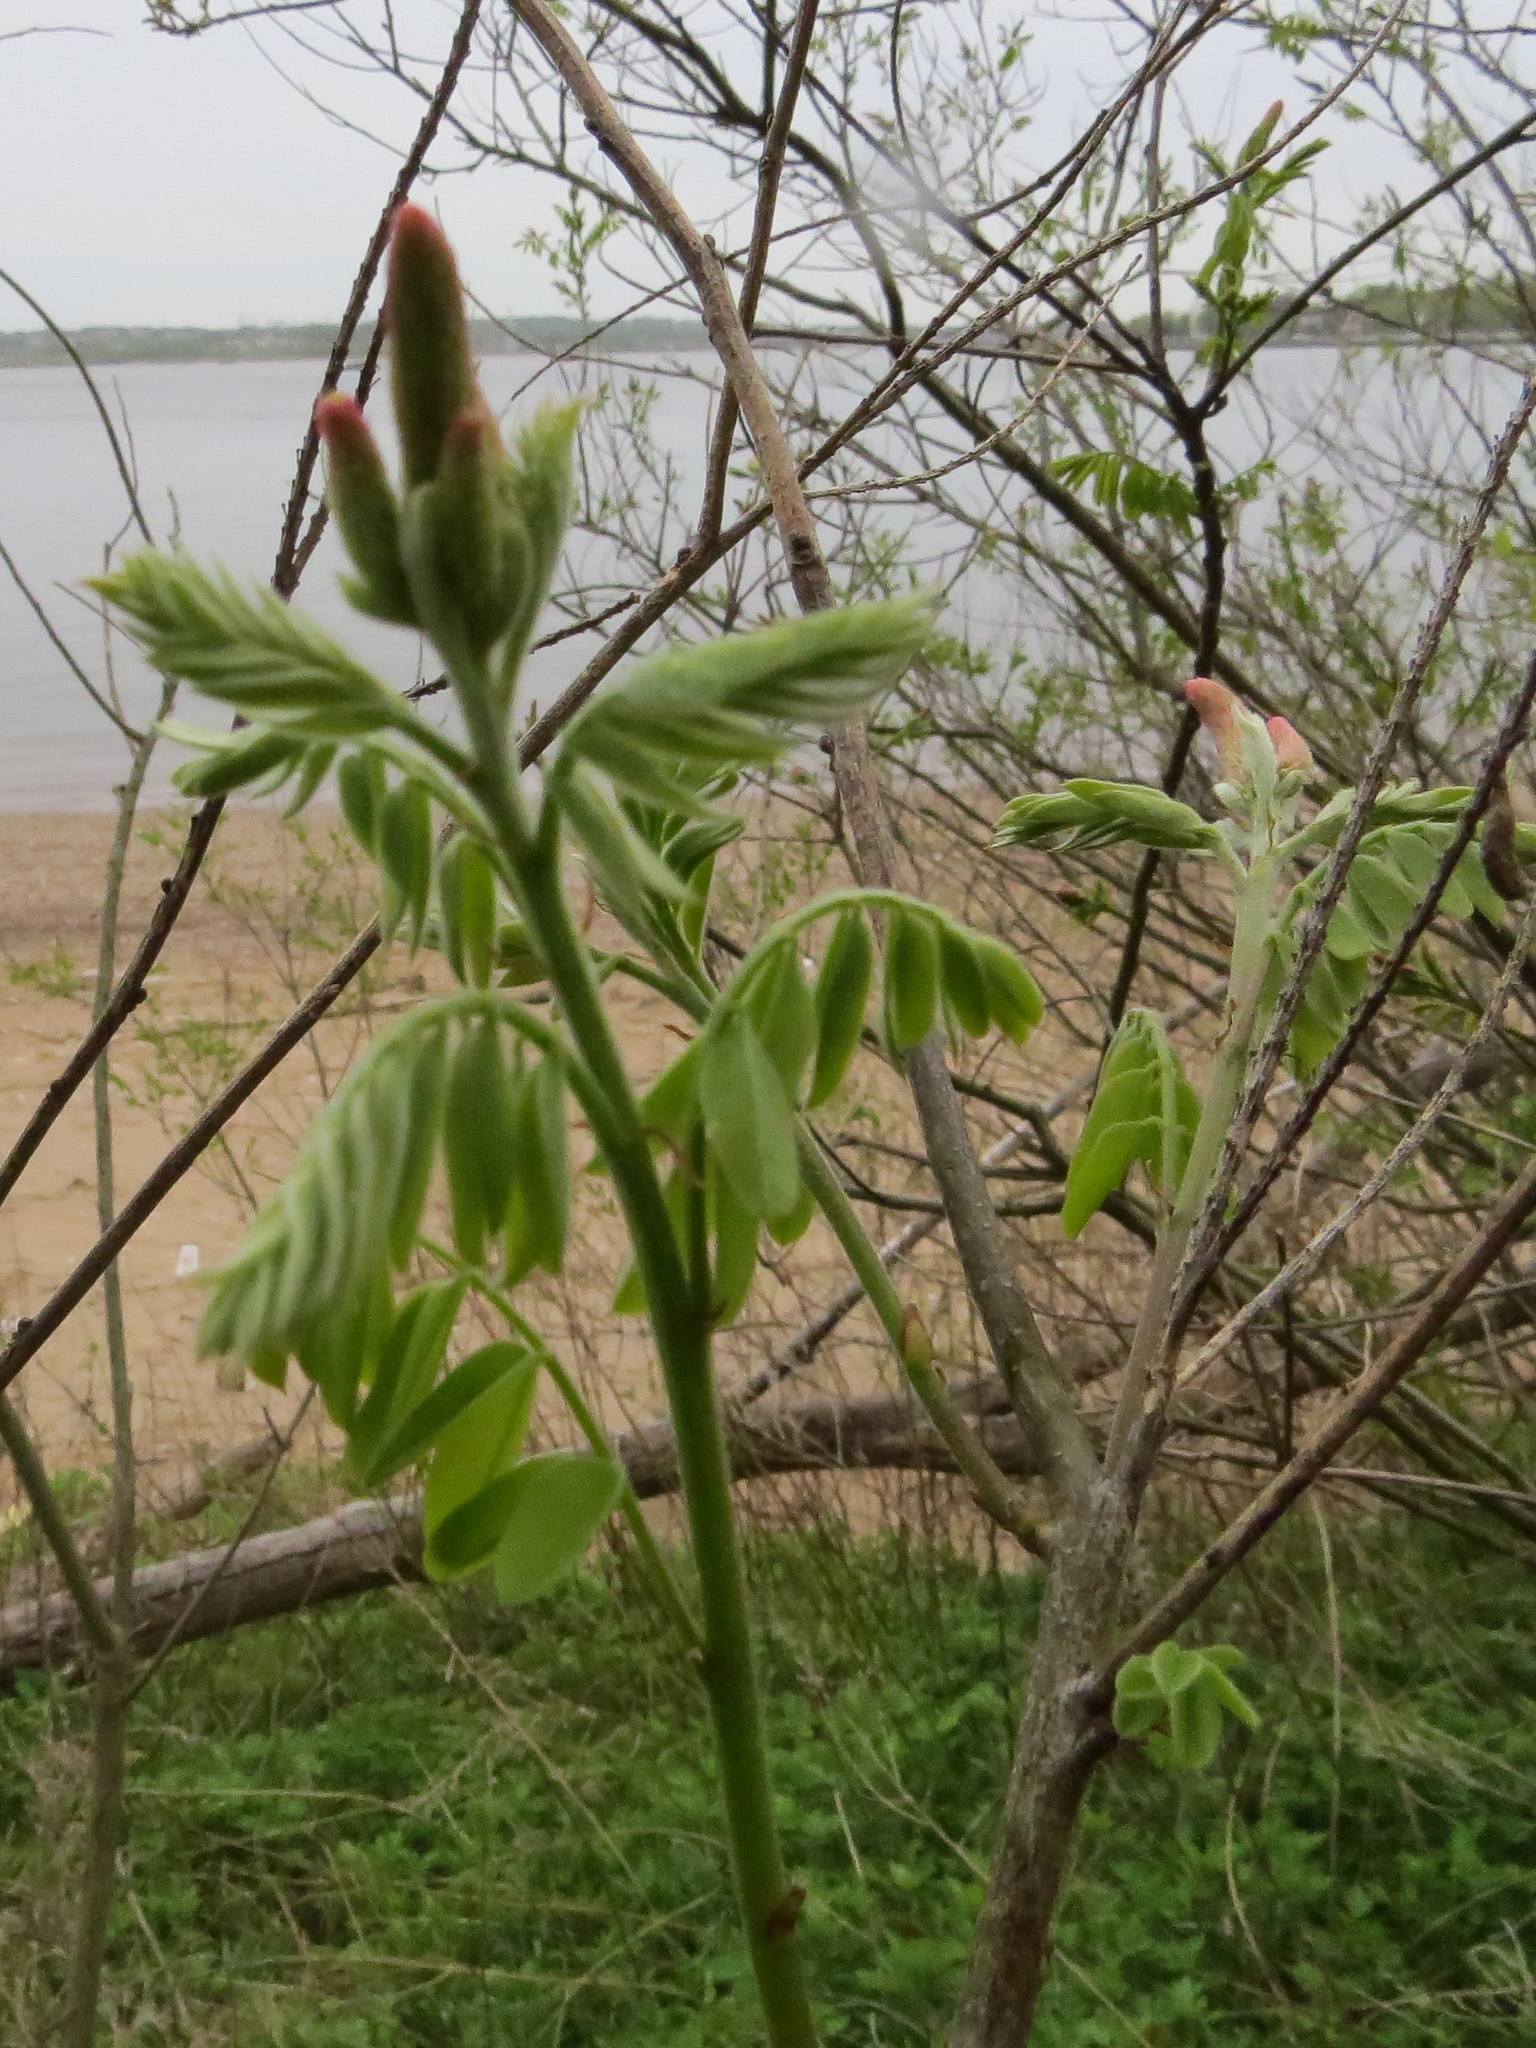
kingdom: Plantae
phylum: Tracheophyta
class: Magnoliopsida
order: Fabales
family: Fabaceae
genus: Amorpha
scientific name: Amorpha fruticosa
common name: False indigo
